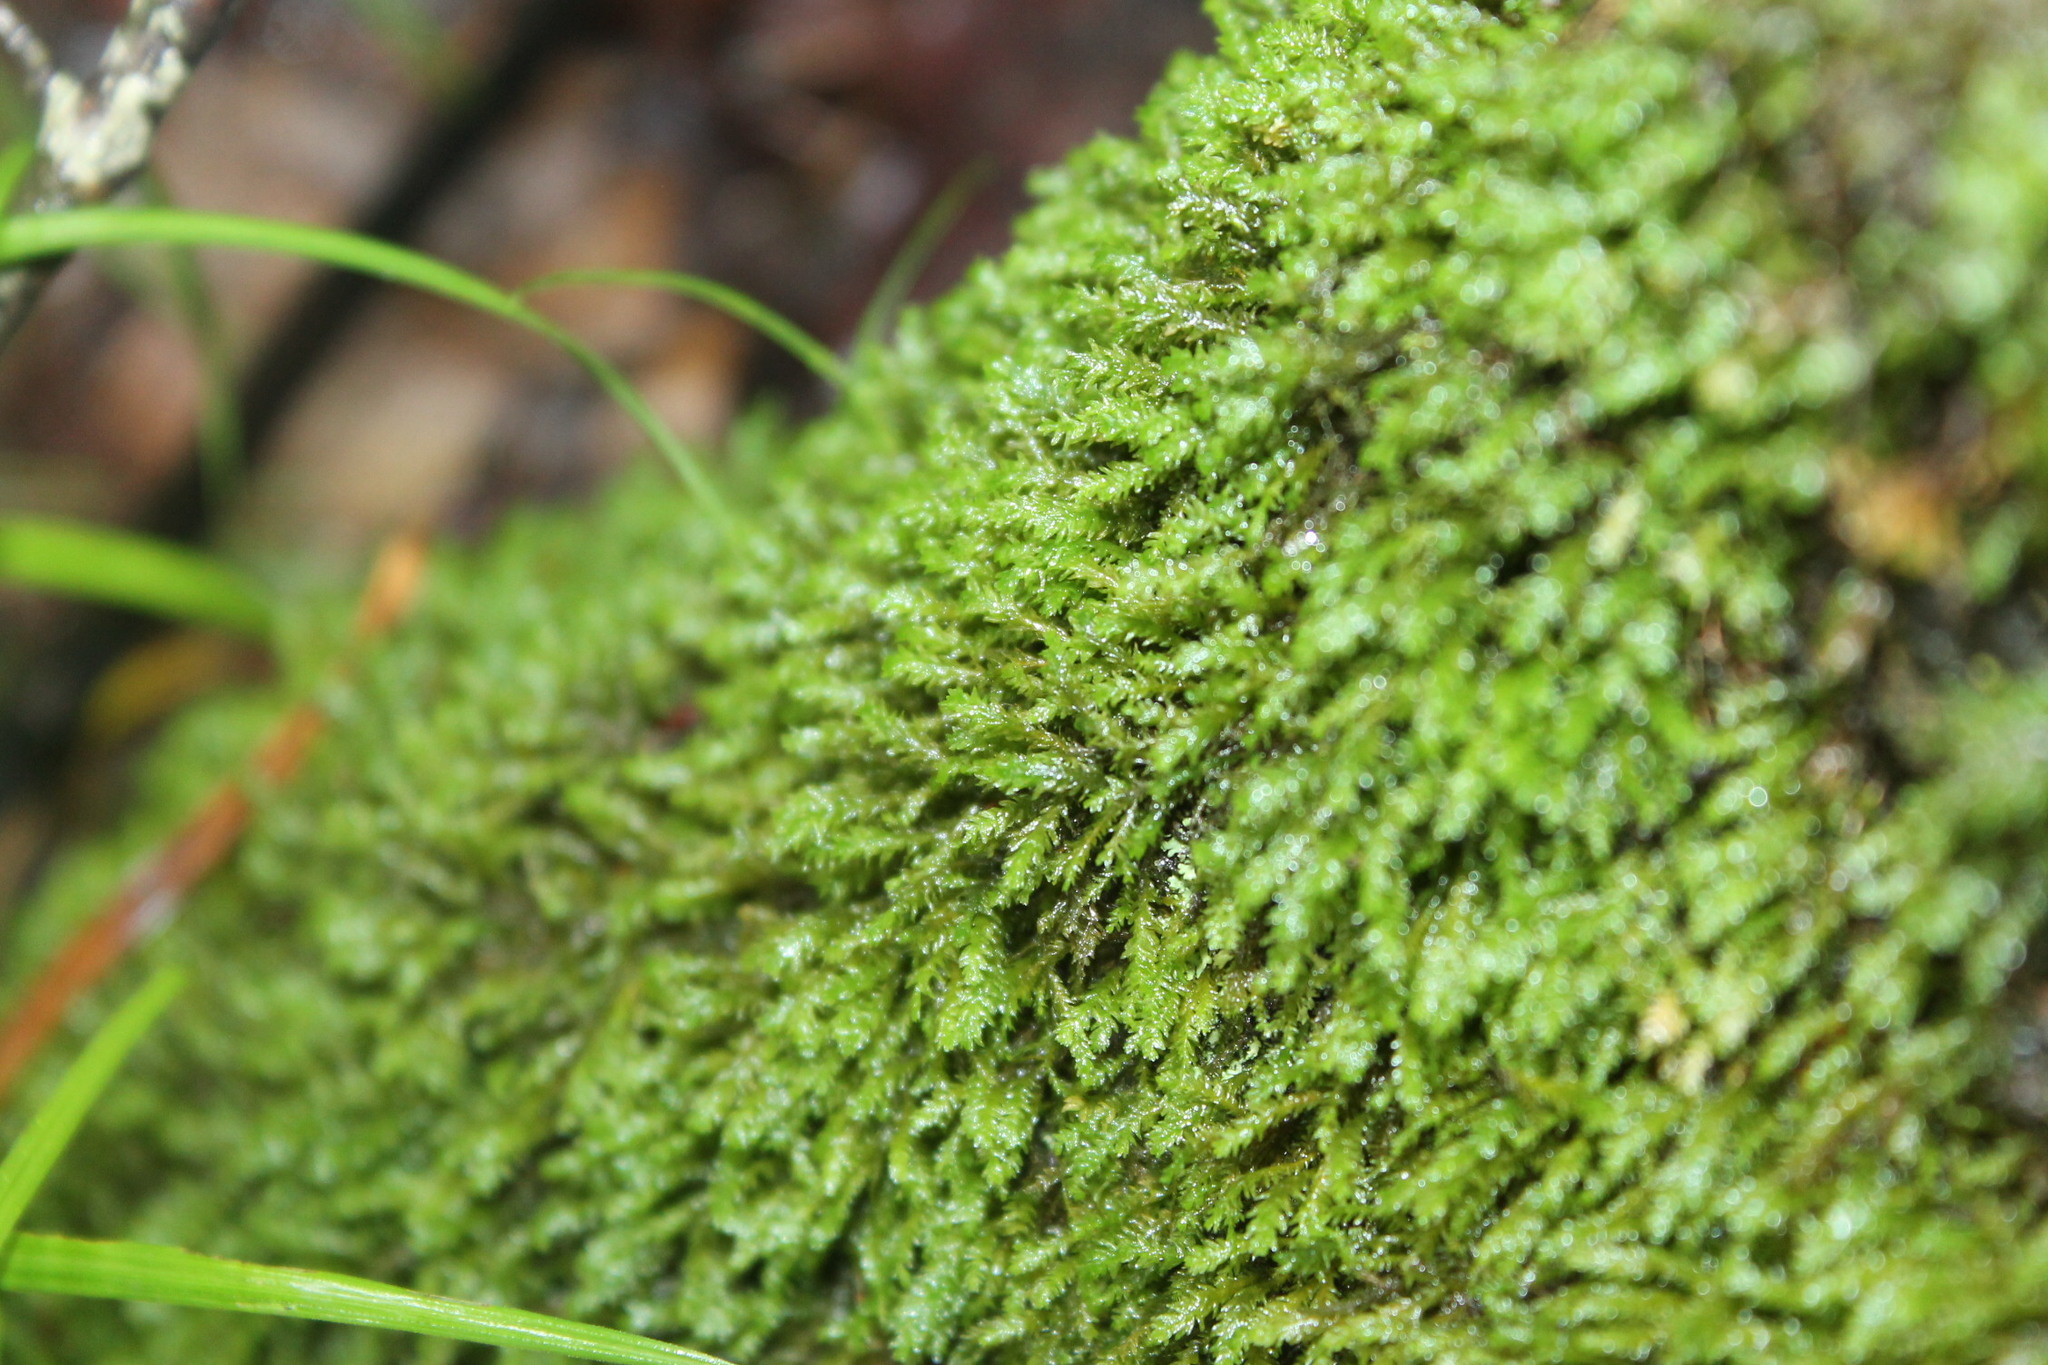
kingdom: Plantae
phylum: Bryophyta
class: Bryopsida
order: Hypnales
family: Neckeraceae
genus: Pseudanomodon
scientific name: Pseudanomodon attenuatus
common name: Tree-skirt moss
